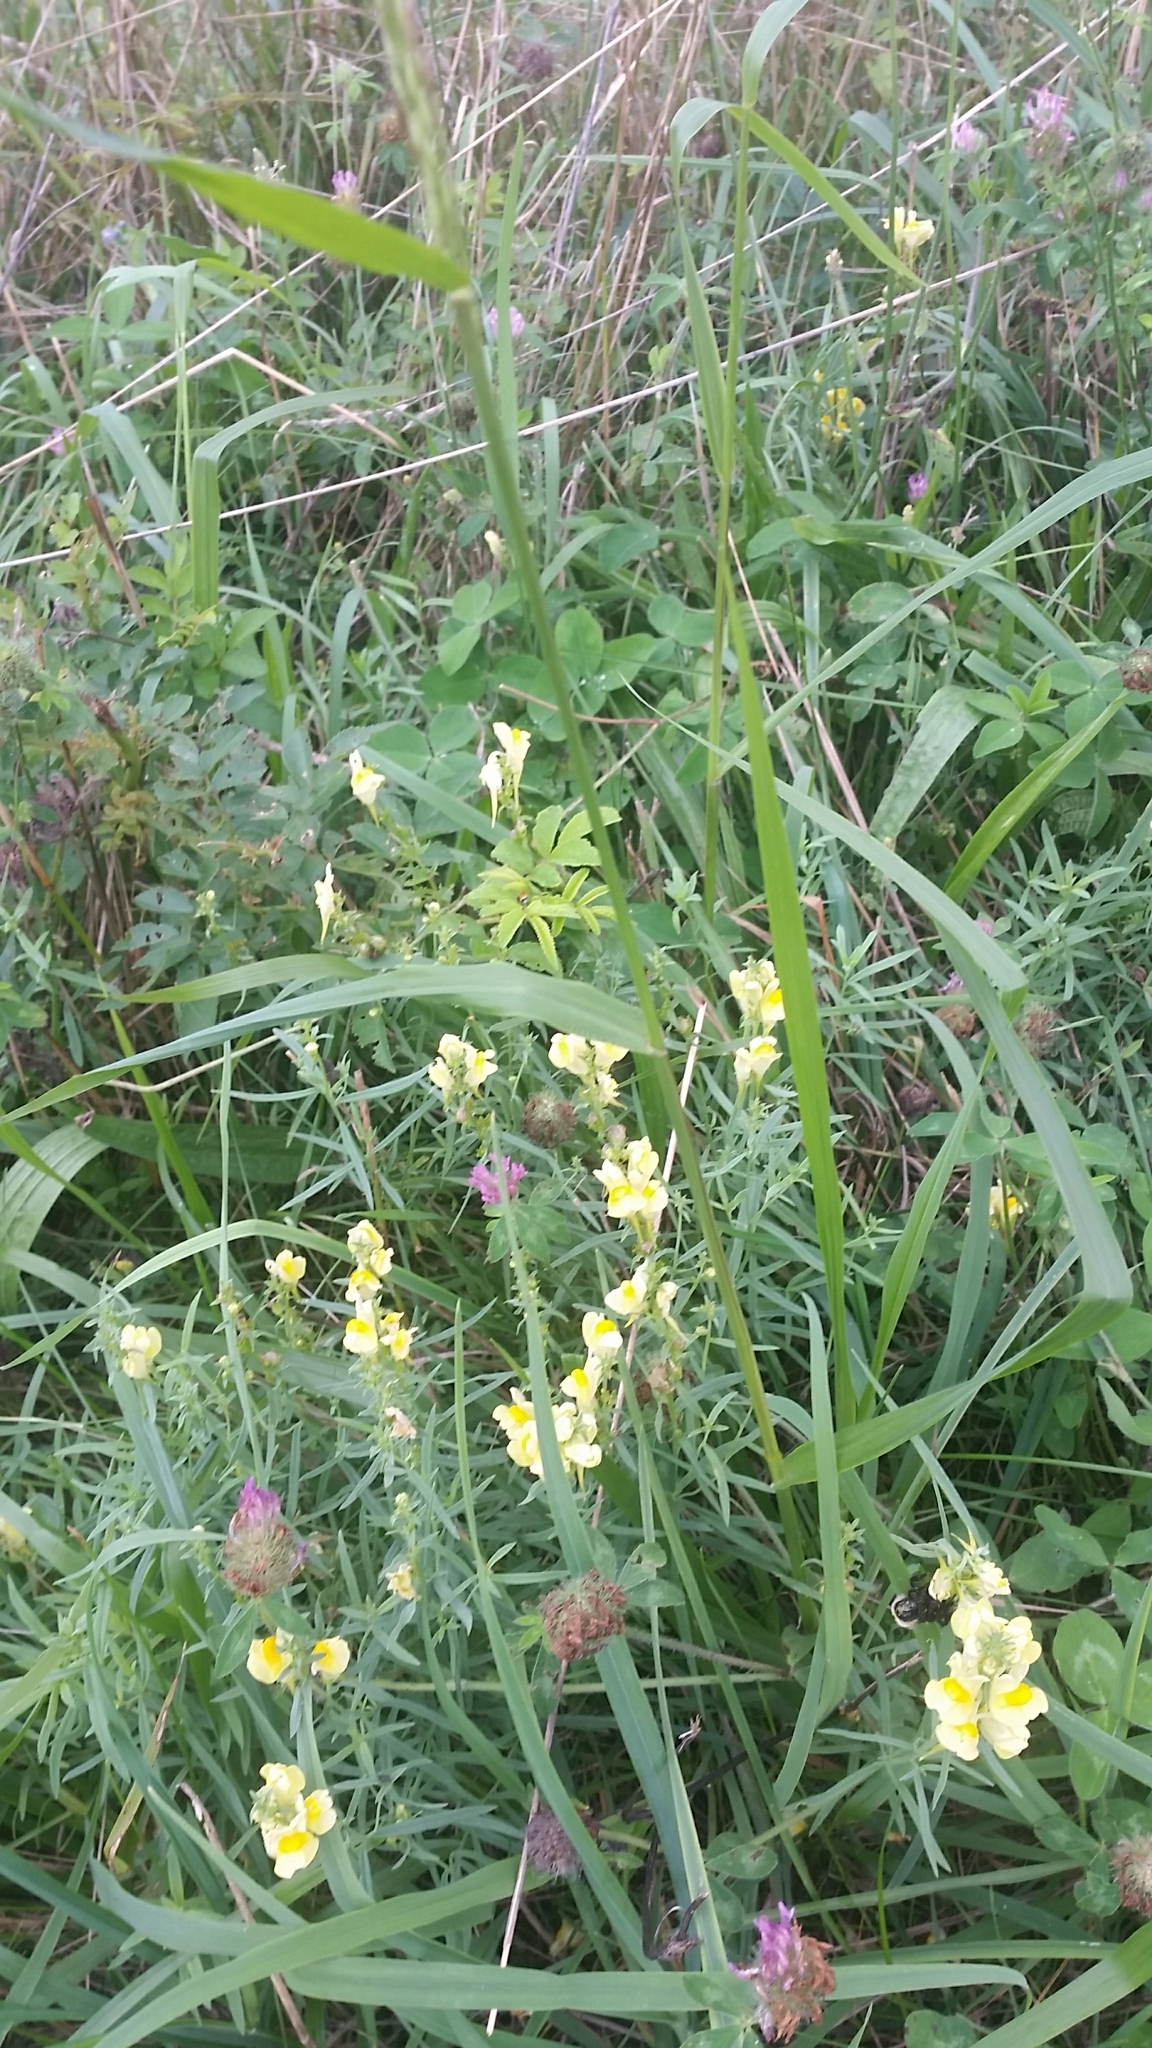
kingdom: Plantae
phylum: Tracheophyta
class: Magnoliopsida
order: Lamiales
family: Plantaginaceae
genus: Linaria
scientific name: Linaria vulgaris
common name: Butter and eggs
